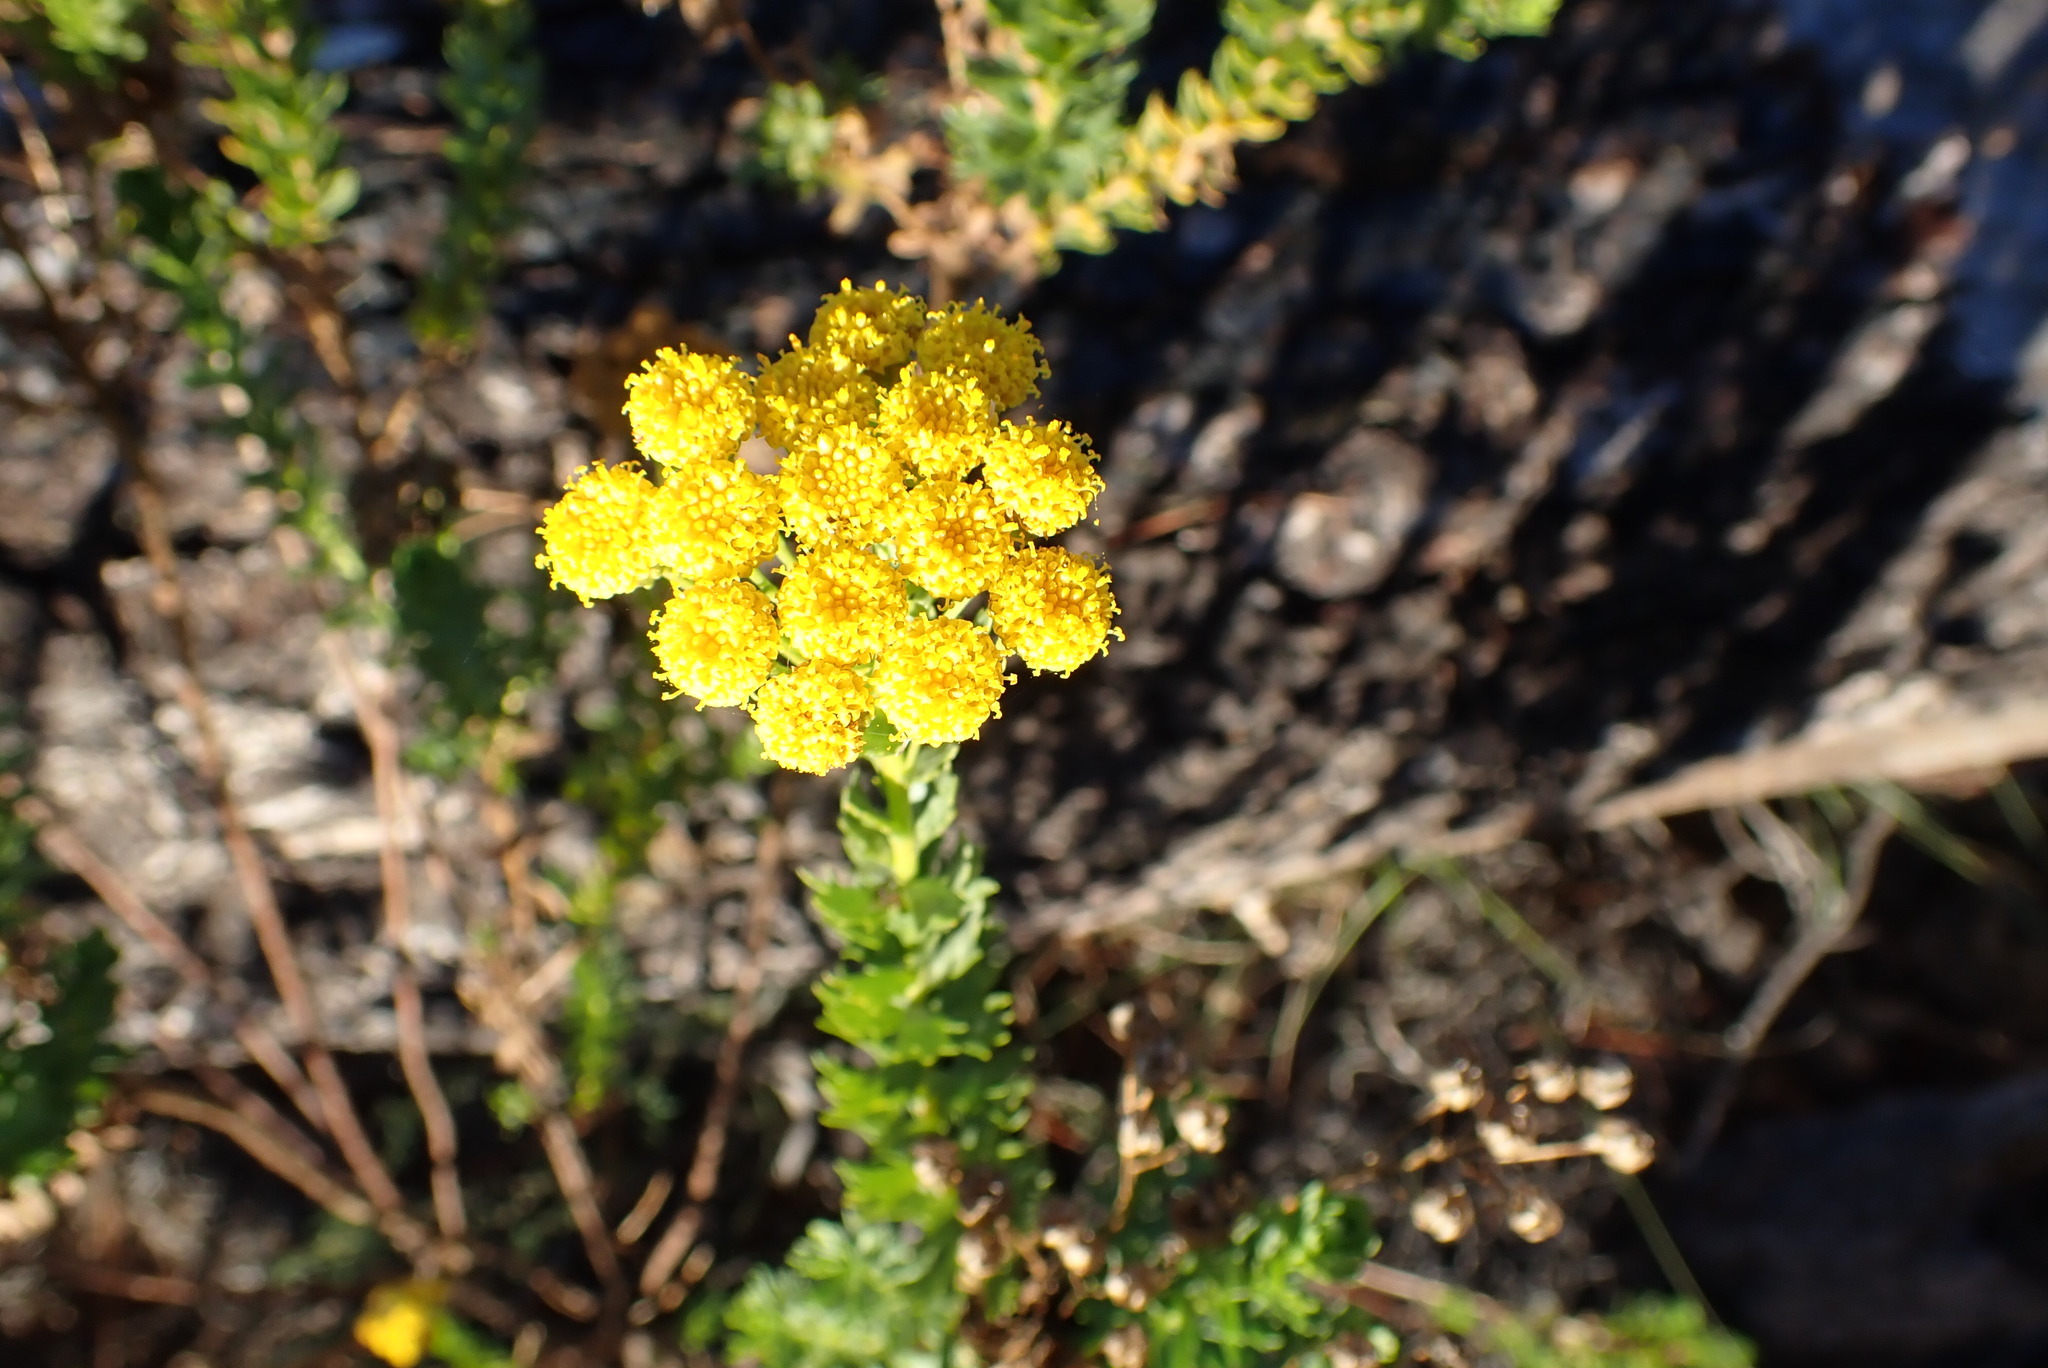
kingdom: Plantae
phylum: Tracheophyta
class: Magnoliopsida
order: Asterales
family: Asteraceae
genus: Athanasia
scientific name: Athanasia trifurcata
